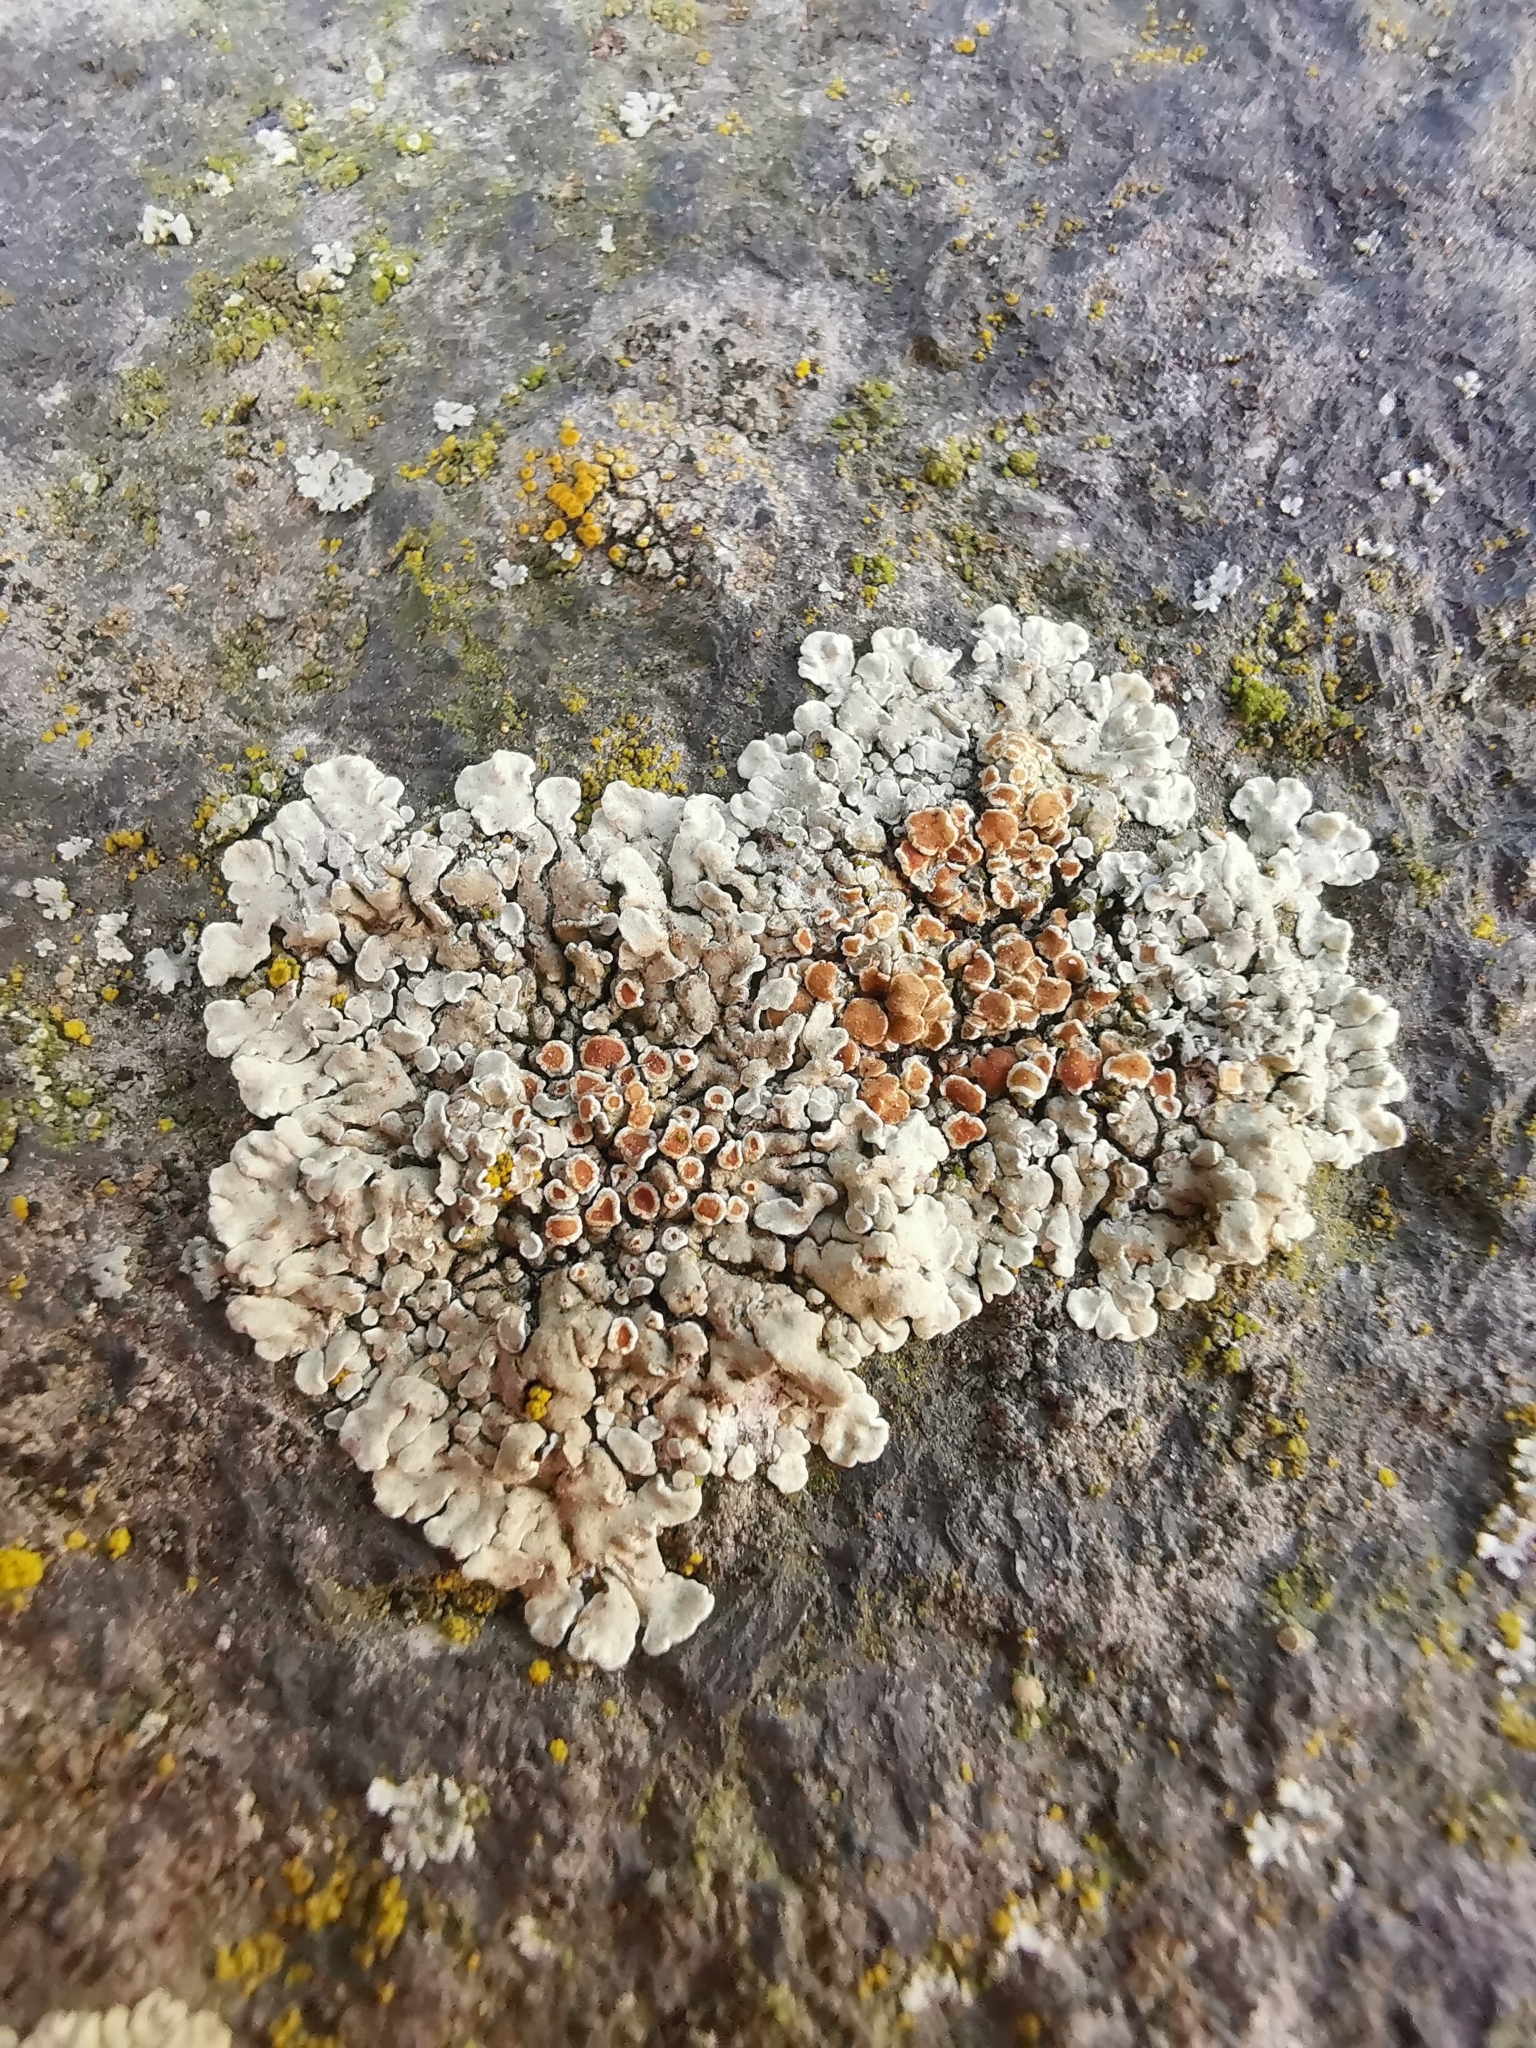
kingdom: Fungi
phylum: Ascomycota
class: Lecanoromycetes
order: Lecanorales
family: Lecanoraceae
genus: Protoparmeliopsis
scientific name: Protoparmeliopsis muralis
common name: Stonewall rim lichen
